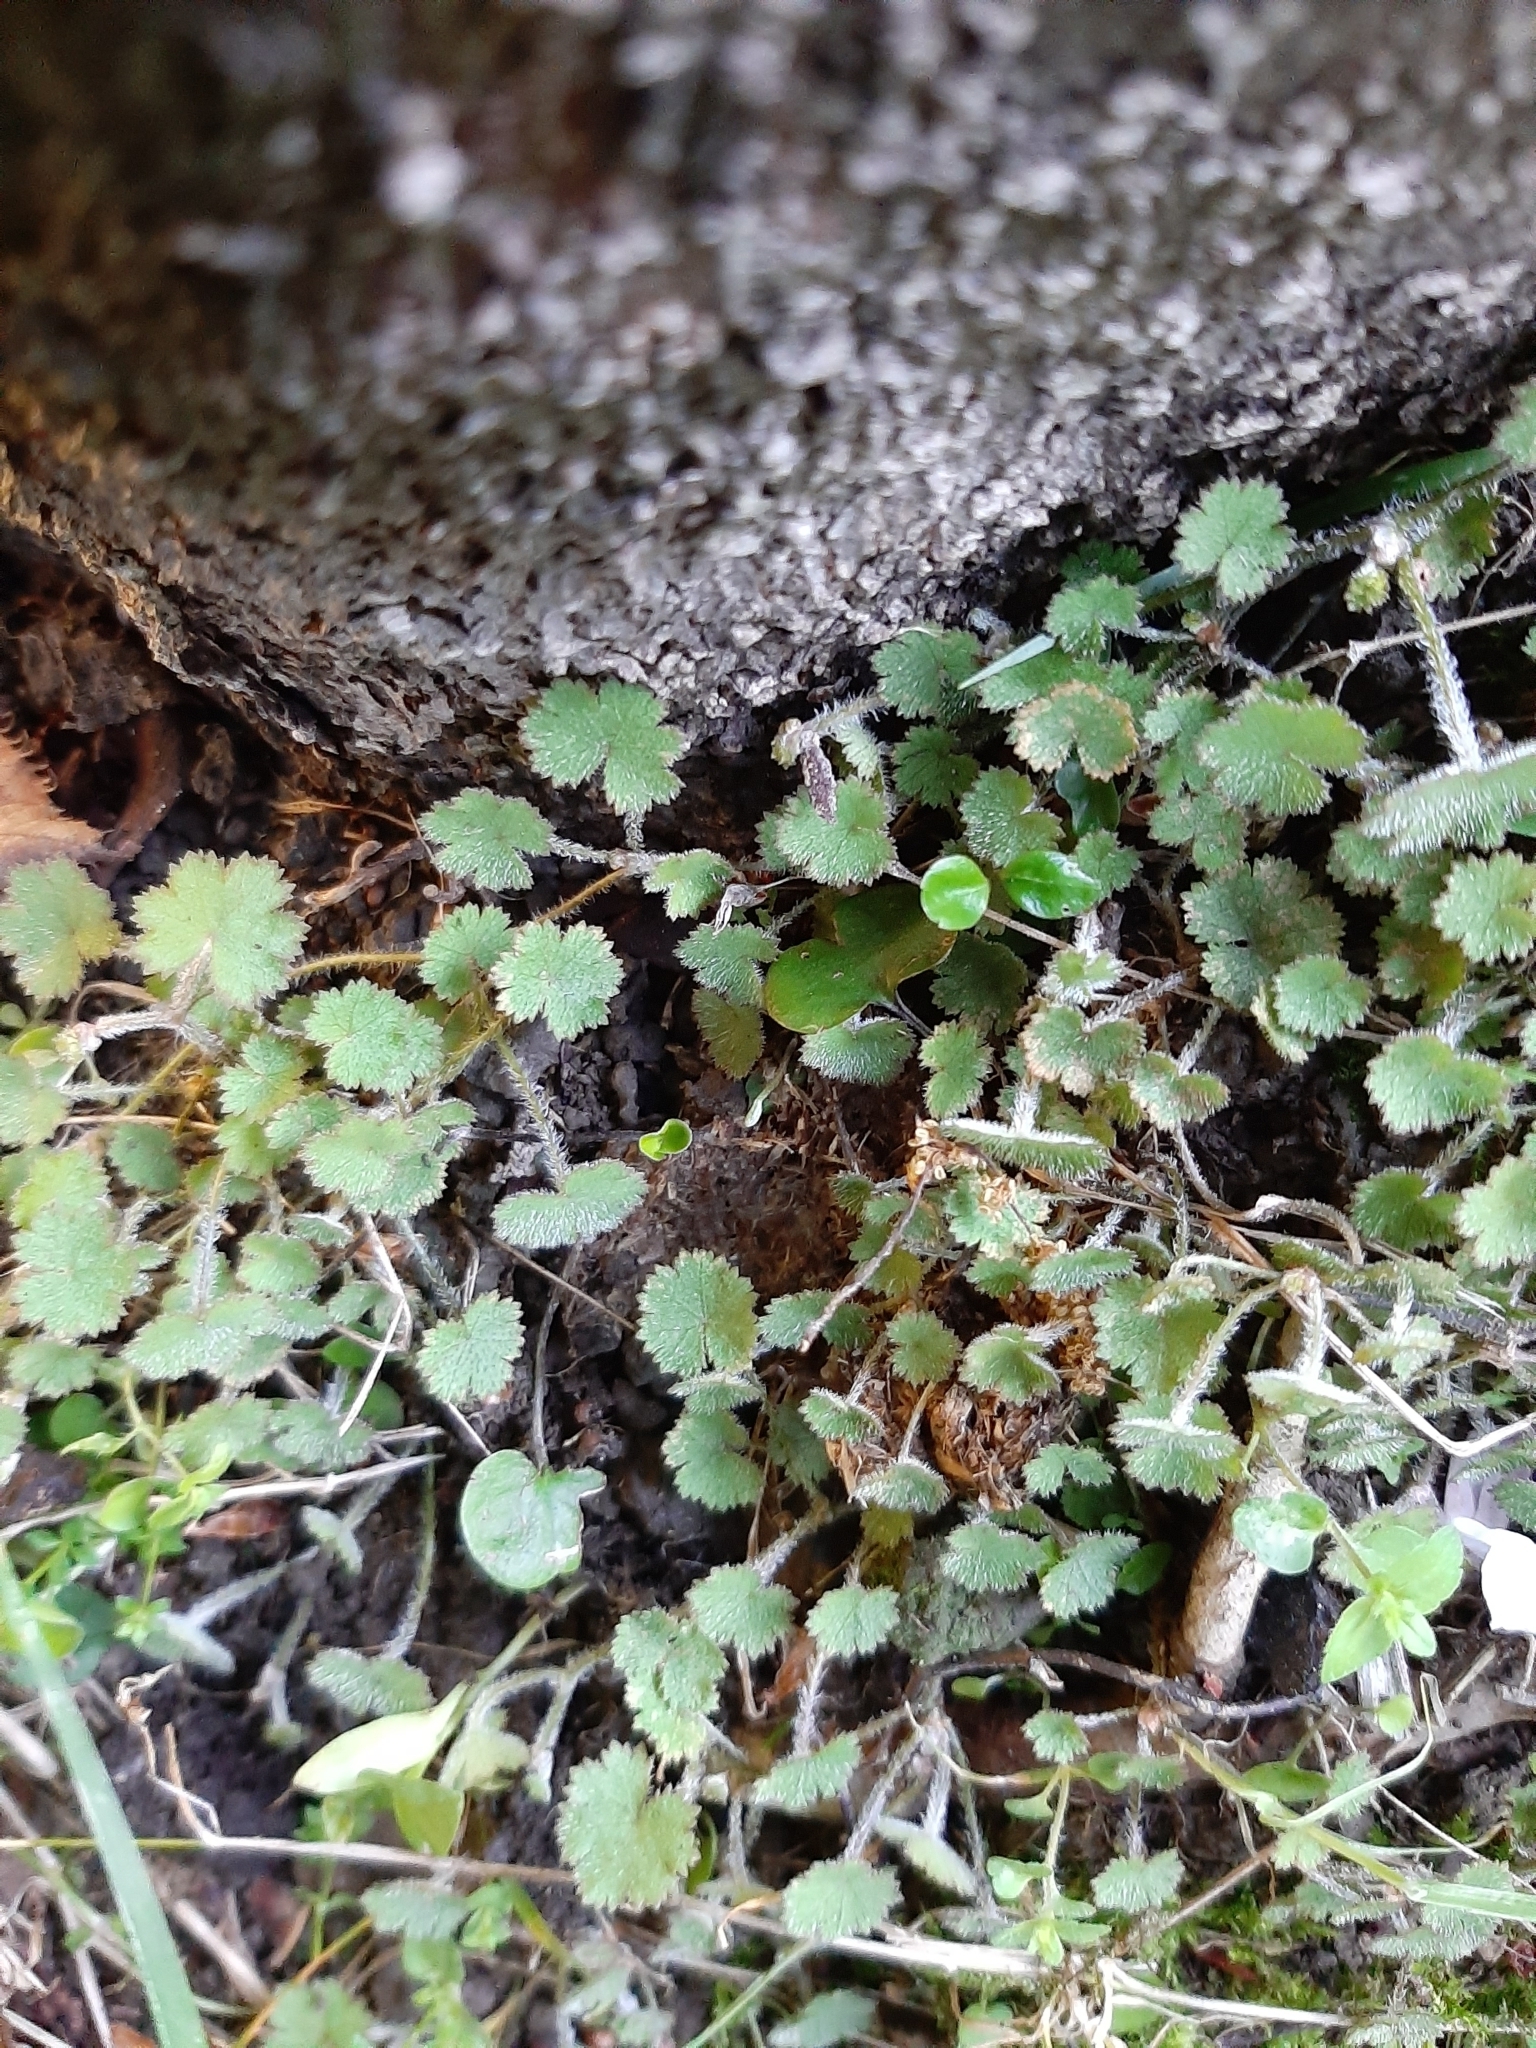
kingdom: Plantae
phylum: Tracheophyta
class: Magnoliopsida
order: Apiales
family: Araliaceae
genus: Hydrocotyle
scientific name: Hydrocotyle moschata
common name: Hairy pennywort
